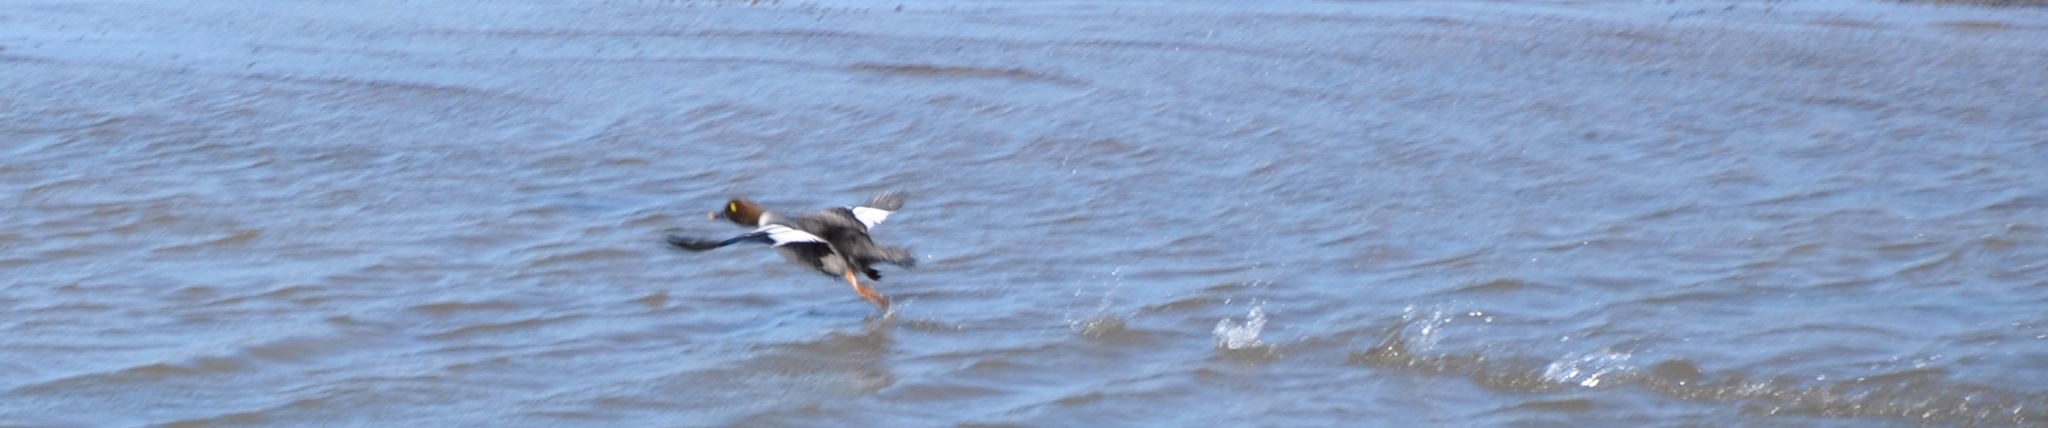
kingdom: Animalia
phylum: Chordata
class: Aves
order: Anseriformes
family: Anatidae
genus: Bucephala
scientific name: Bucephala clangula
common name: Common goldeneye
